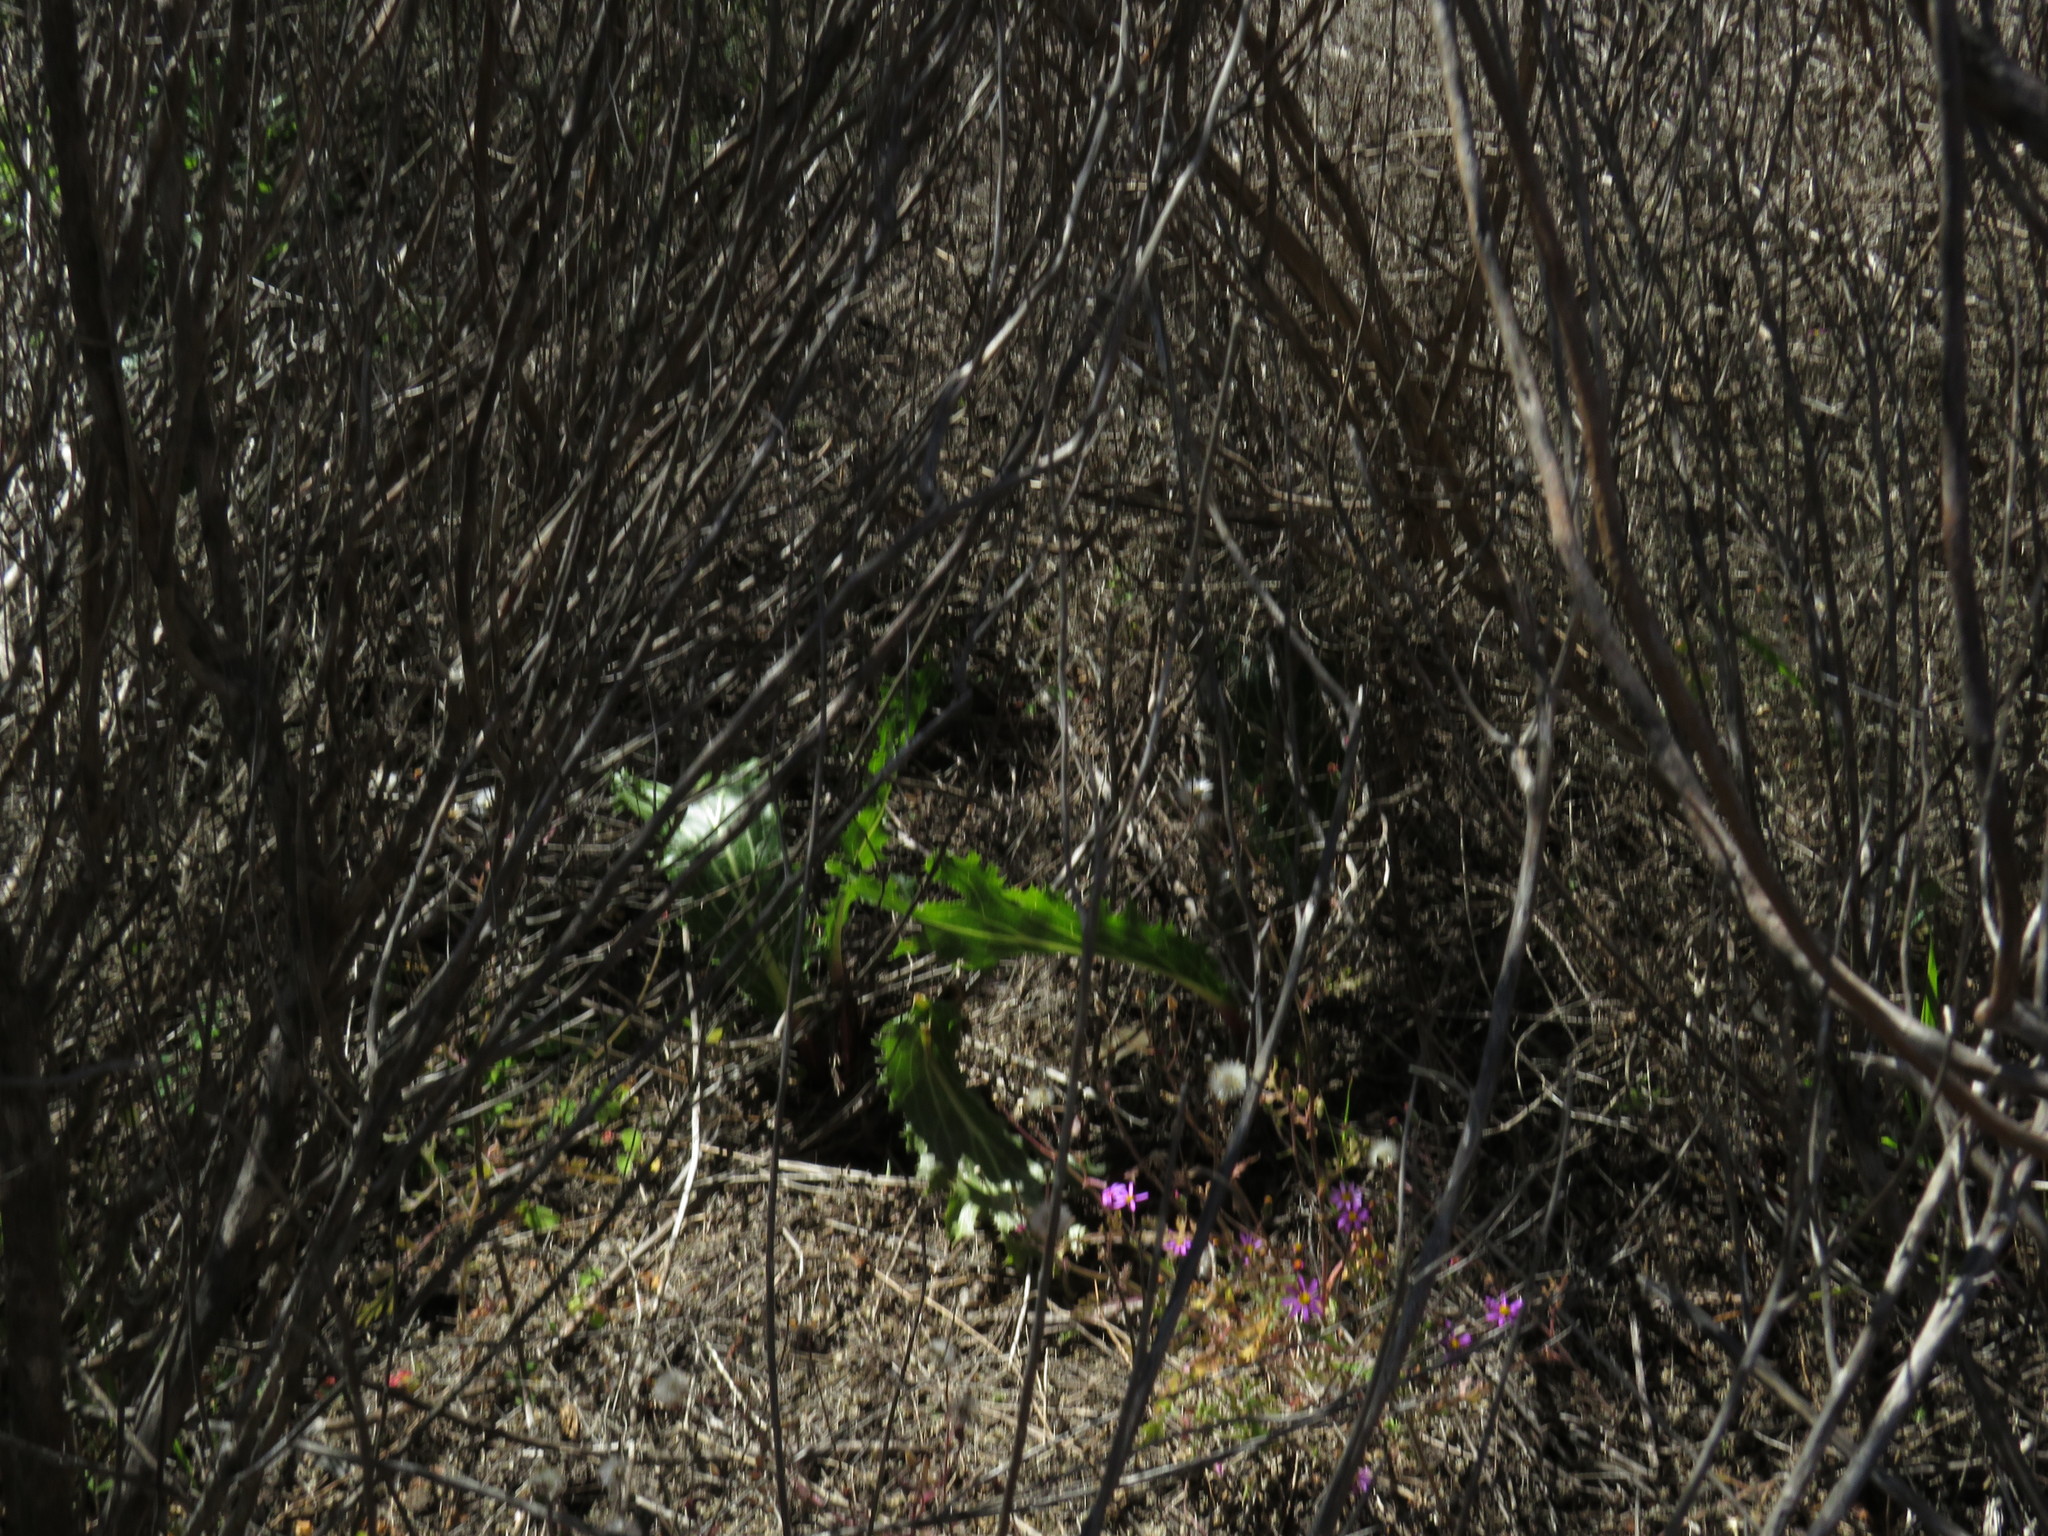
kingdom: Plantae
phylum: Tracheophyta
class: Magnoliopsida
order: Apiales
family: Apiaceae
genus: Lichtensteinia
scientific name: Lichtensteinia lacera
